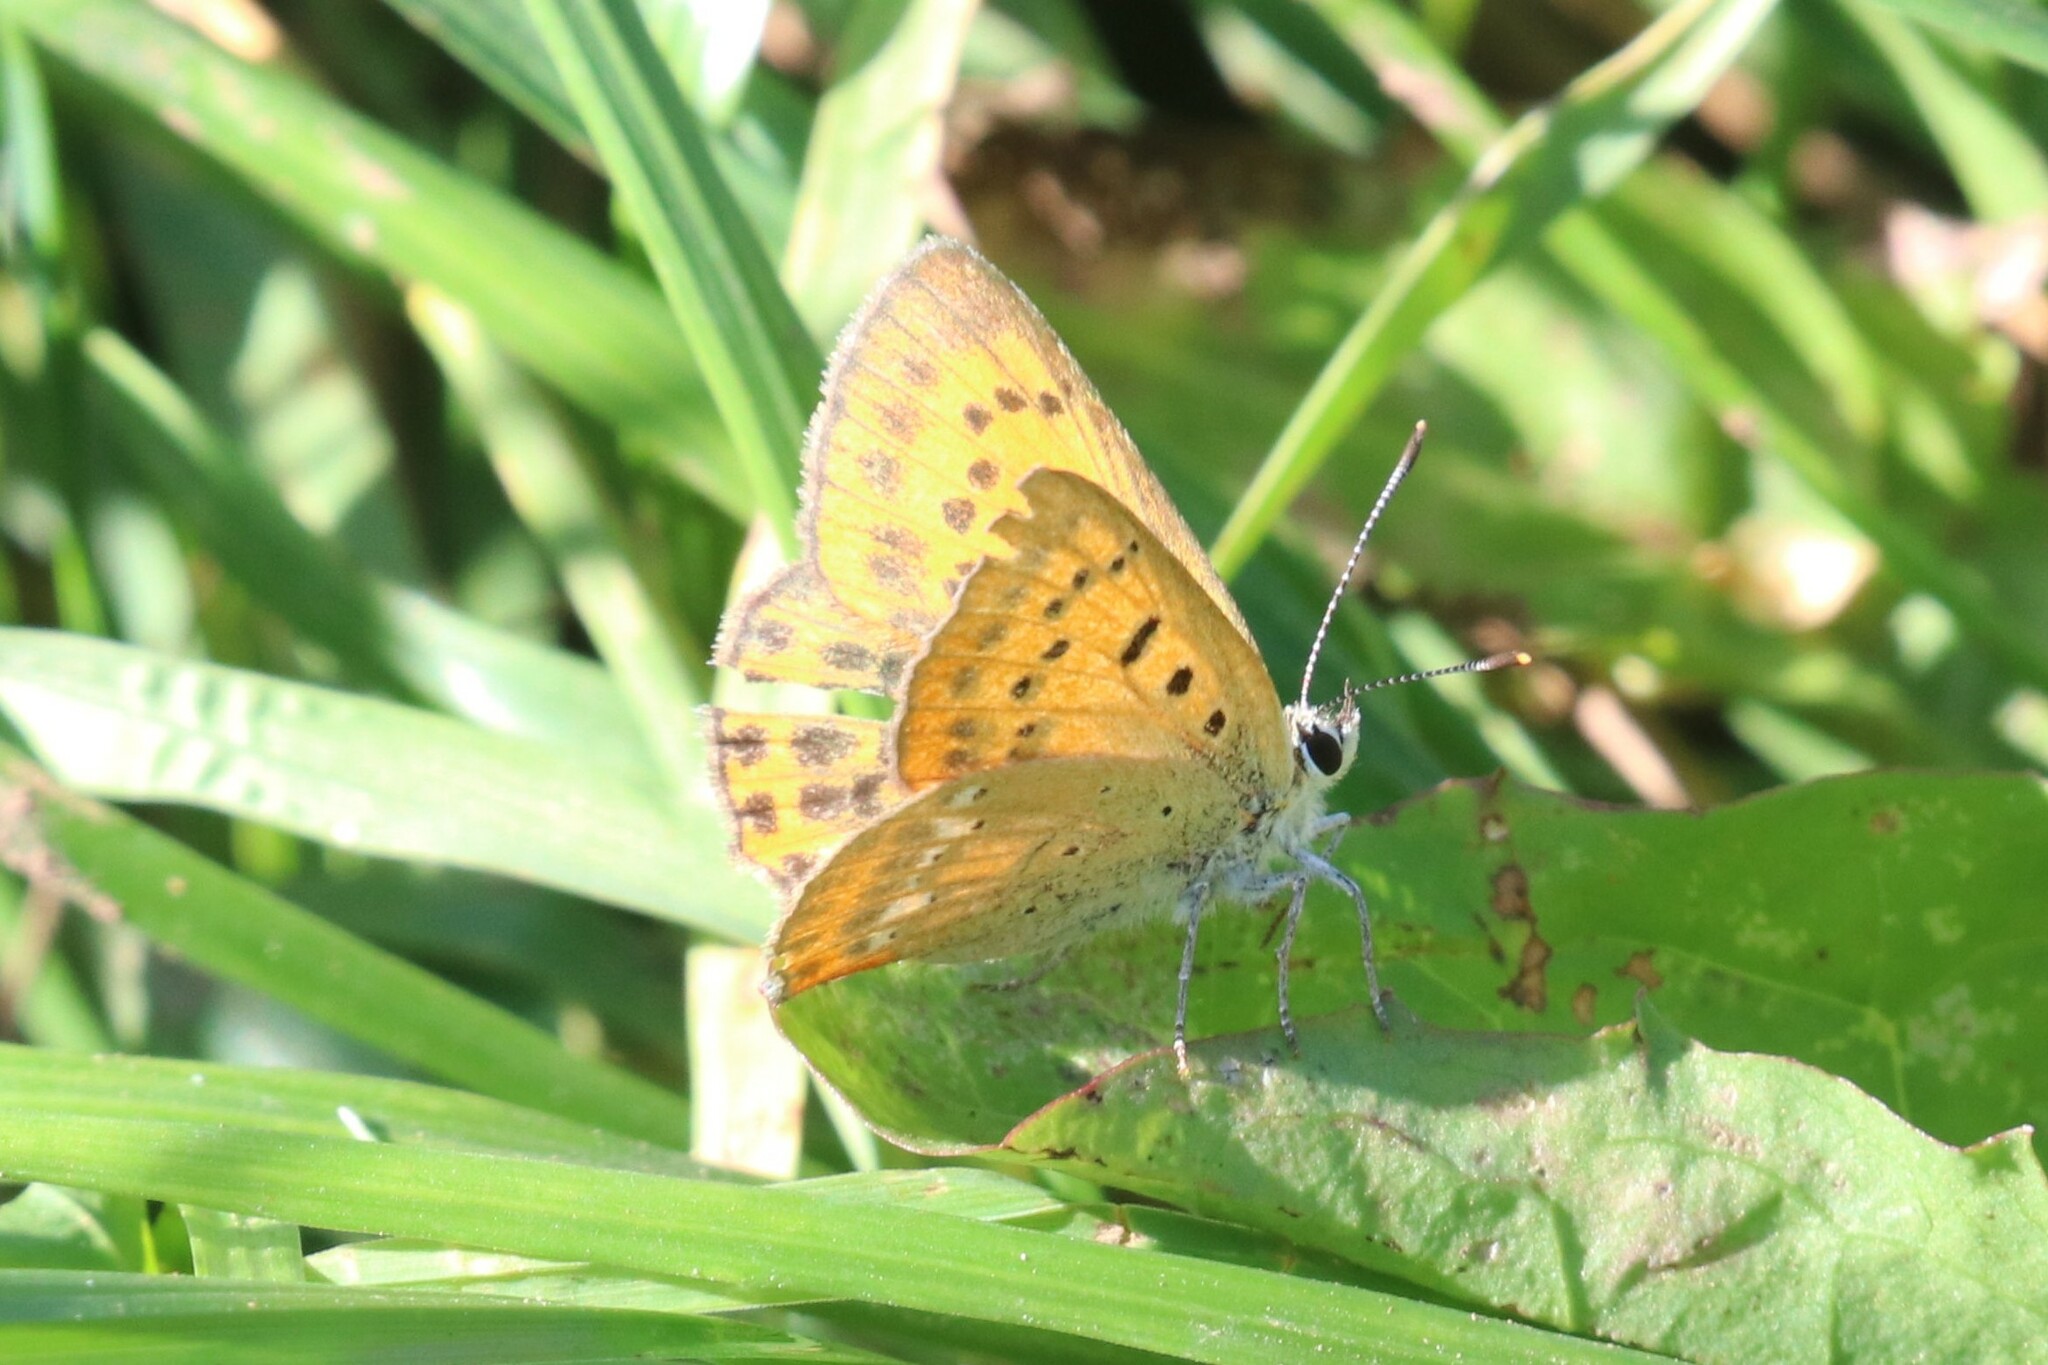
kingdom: Animalia
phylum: Arthropoda
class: Insecta
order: Lepidoptera
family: Lycaenidae
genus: Lycaena
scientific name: Lycaena virgaureae
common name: Scarce copper
